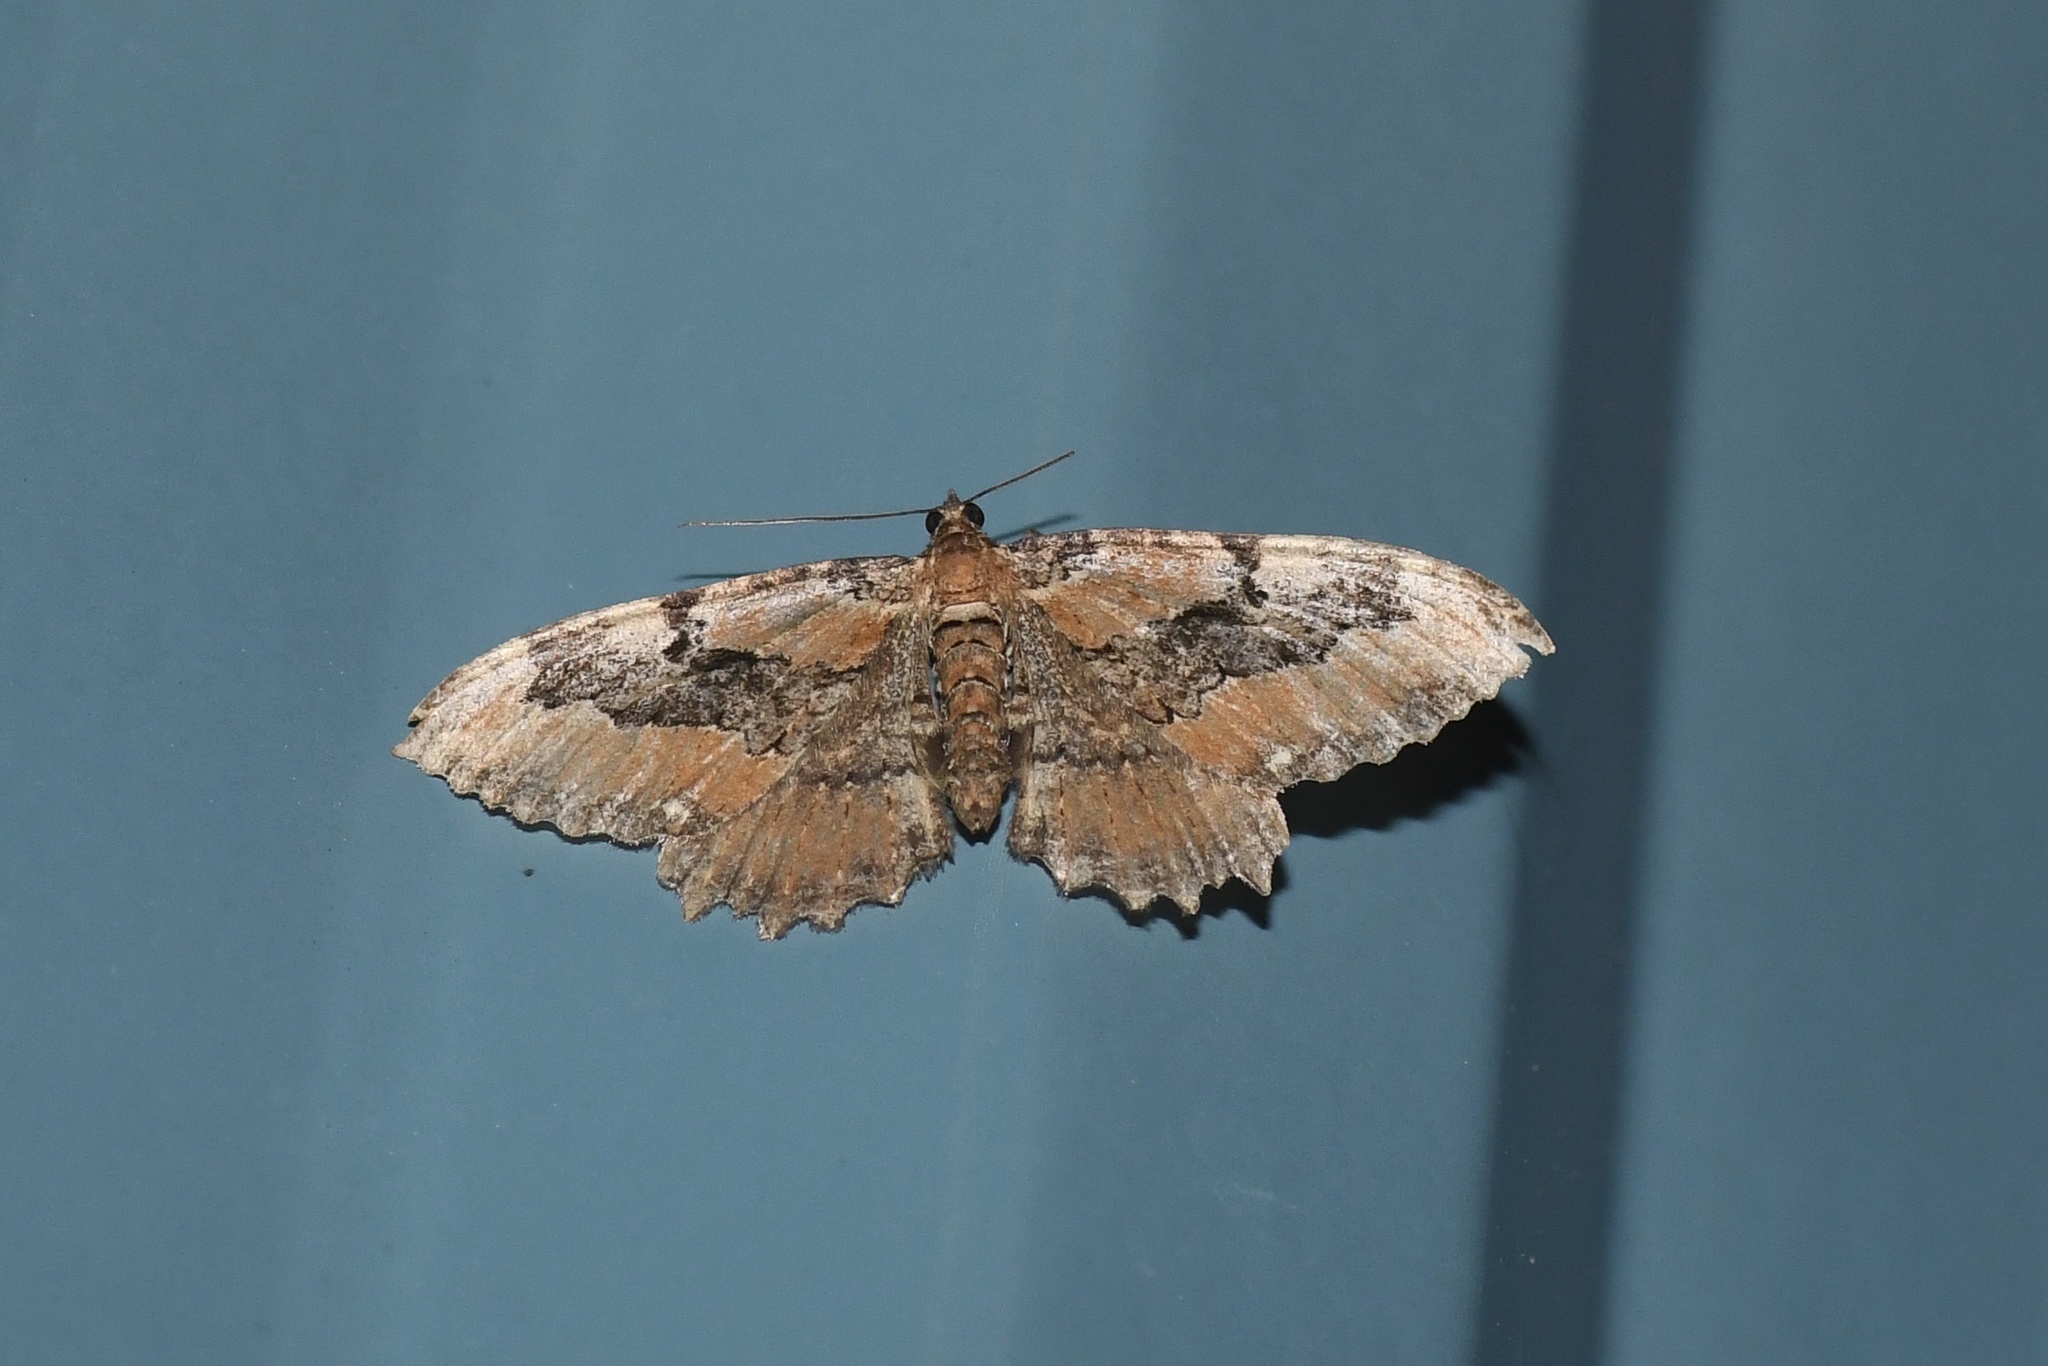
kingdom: Animalia
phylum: Arthropoda
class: Insecta
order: Lepidoptera
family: Geometridae
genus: Rheumaptera
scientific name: Rheumaptera
